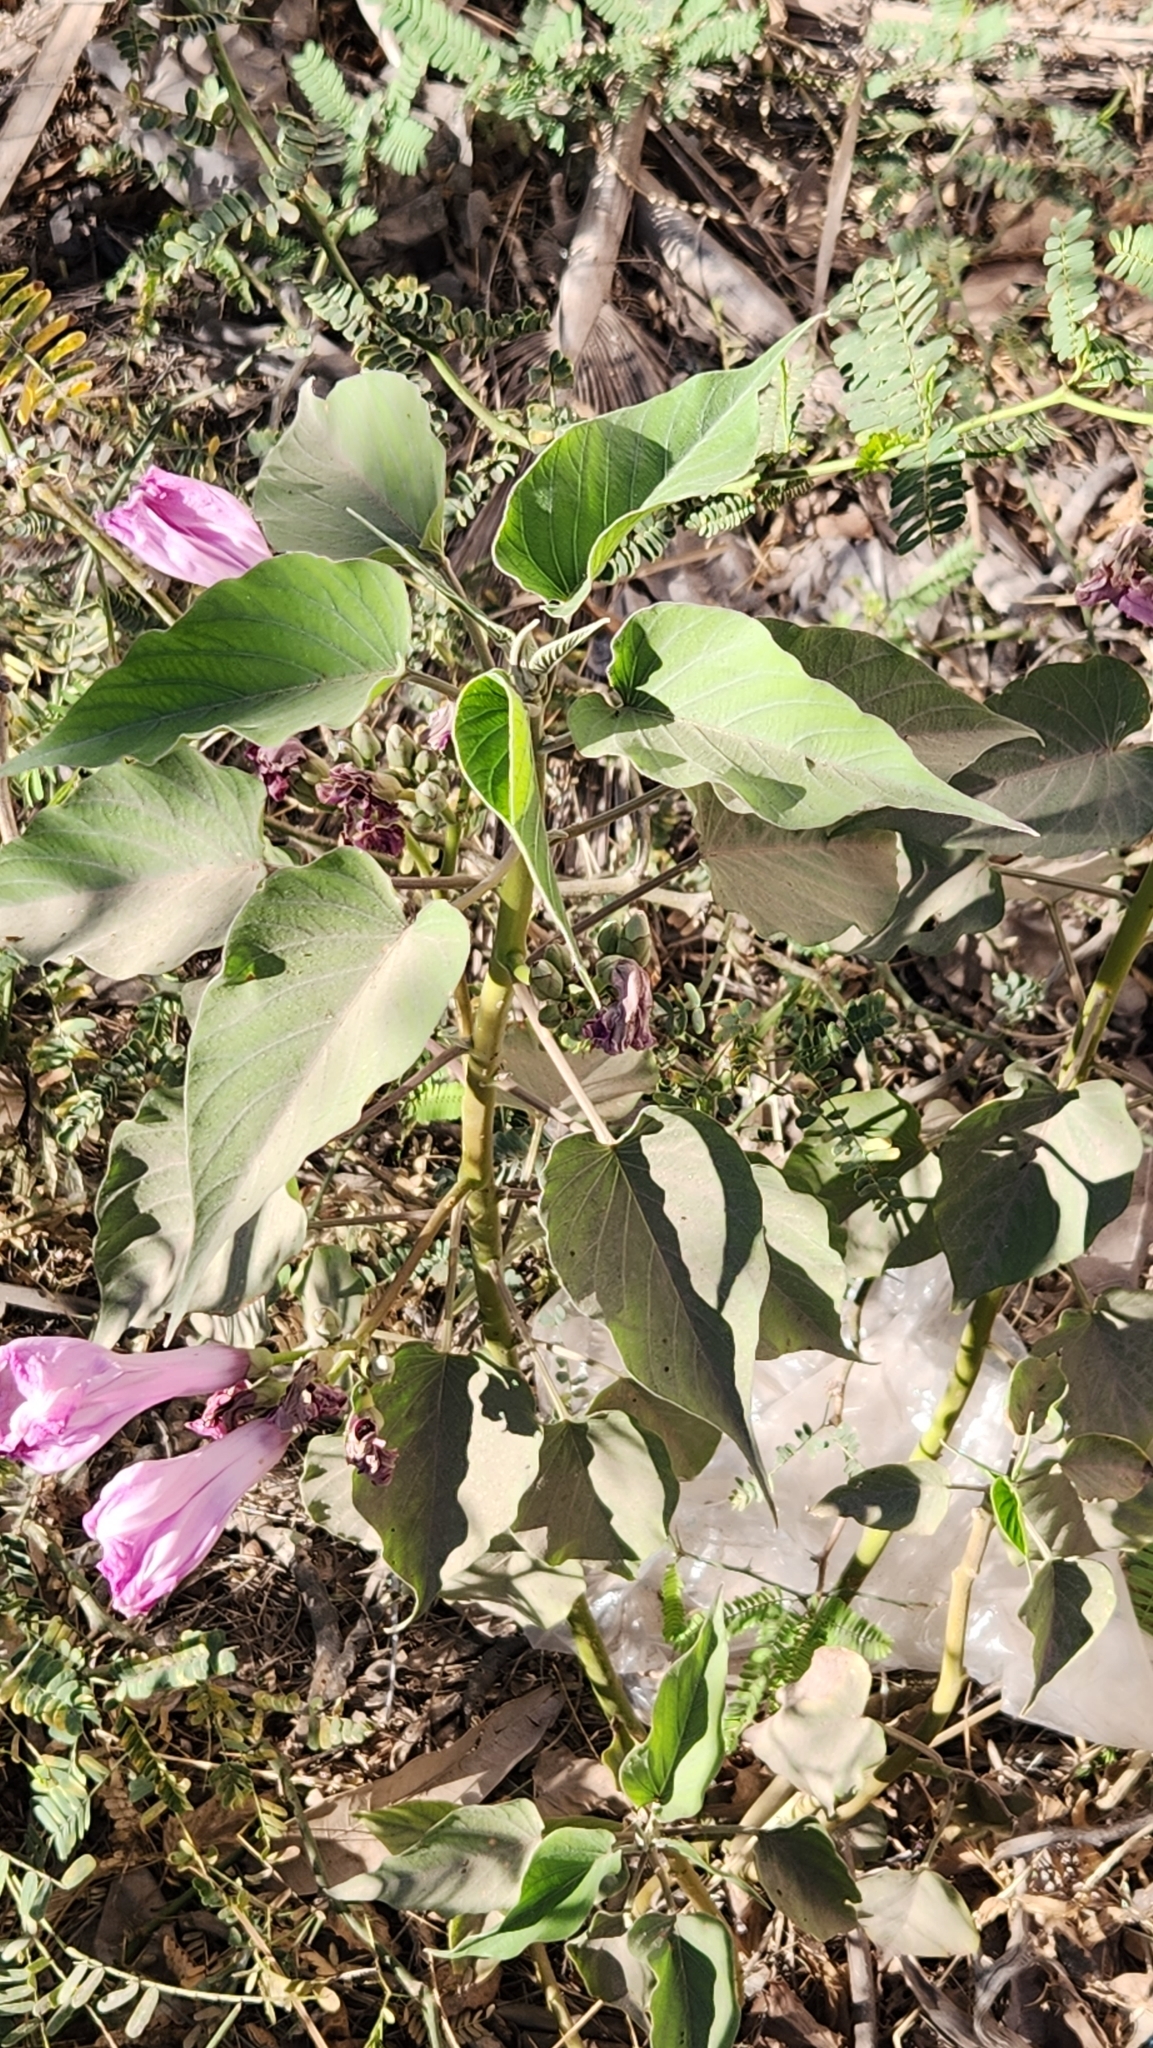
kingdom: Plantae
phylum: Tracheophyta
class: Magnoliopsida
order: Solanales
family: Convolvulaceae
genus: Ipomoea
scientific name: Ipomoea carnea
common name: Morning-glory
